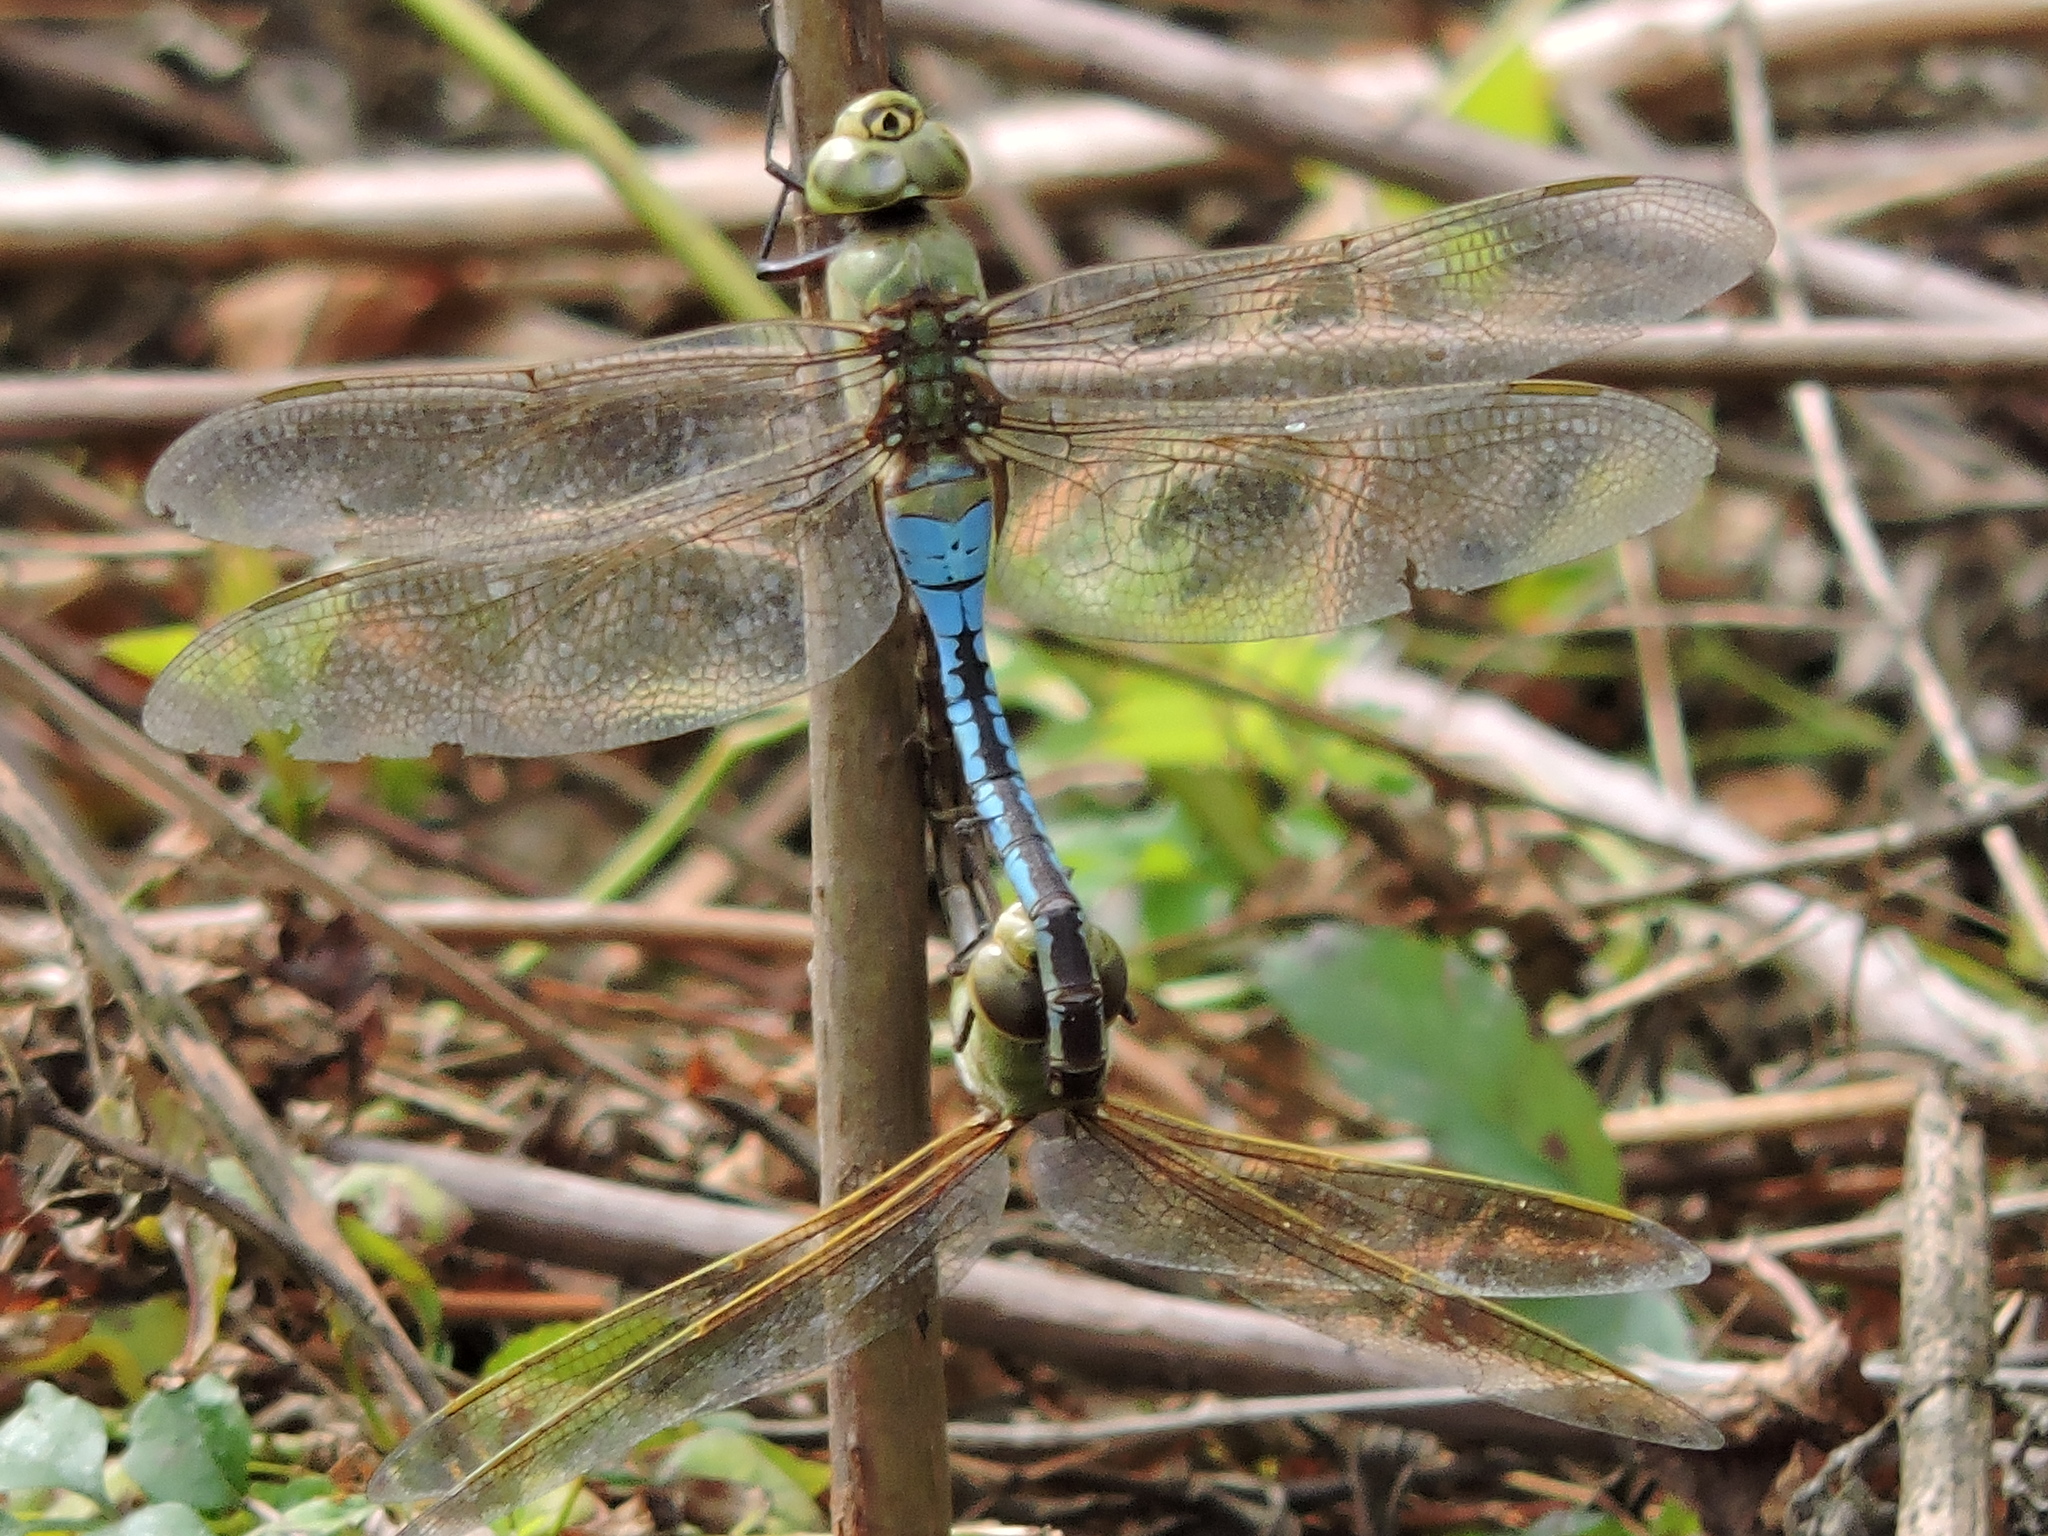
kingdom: Animalia
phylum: Arthropoda
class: Insecta
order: Odonata
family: Aeshnidae
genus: Anax
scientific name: Anax junius
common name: Common green darner
